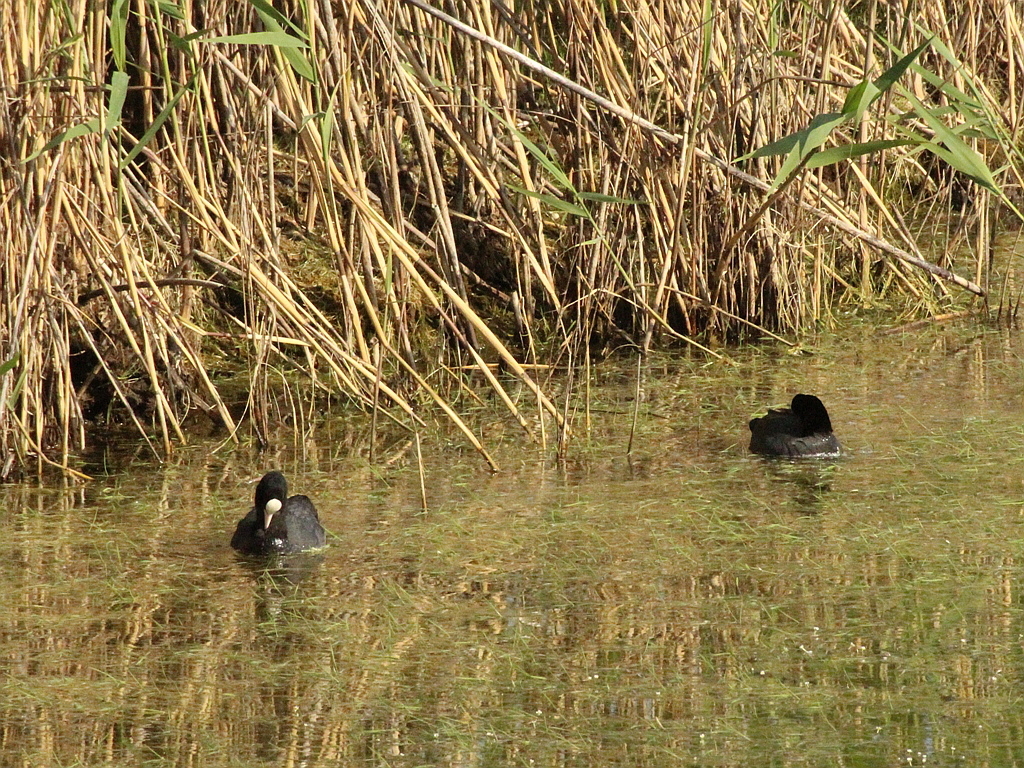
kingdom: Animalia
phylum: Chordata
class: Aves
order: Gruiformes
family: Rallidae
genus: Fulica
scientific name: Fulica atra
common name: Eurasian coot
